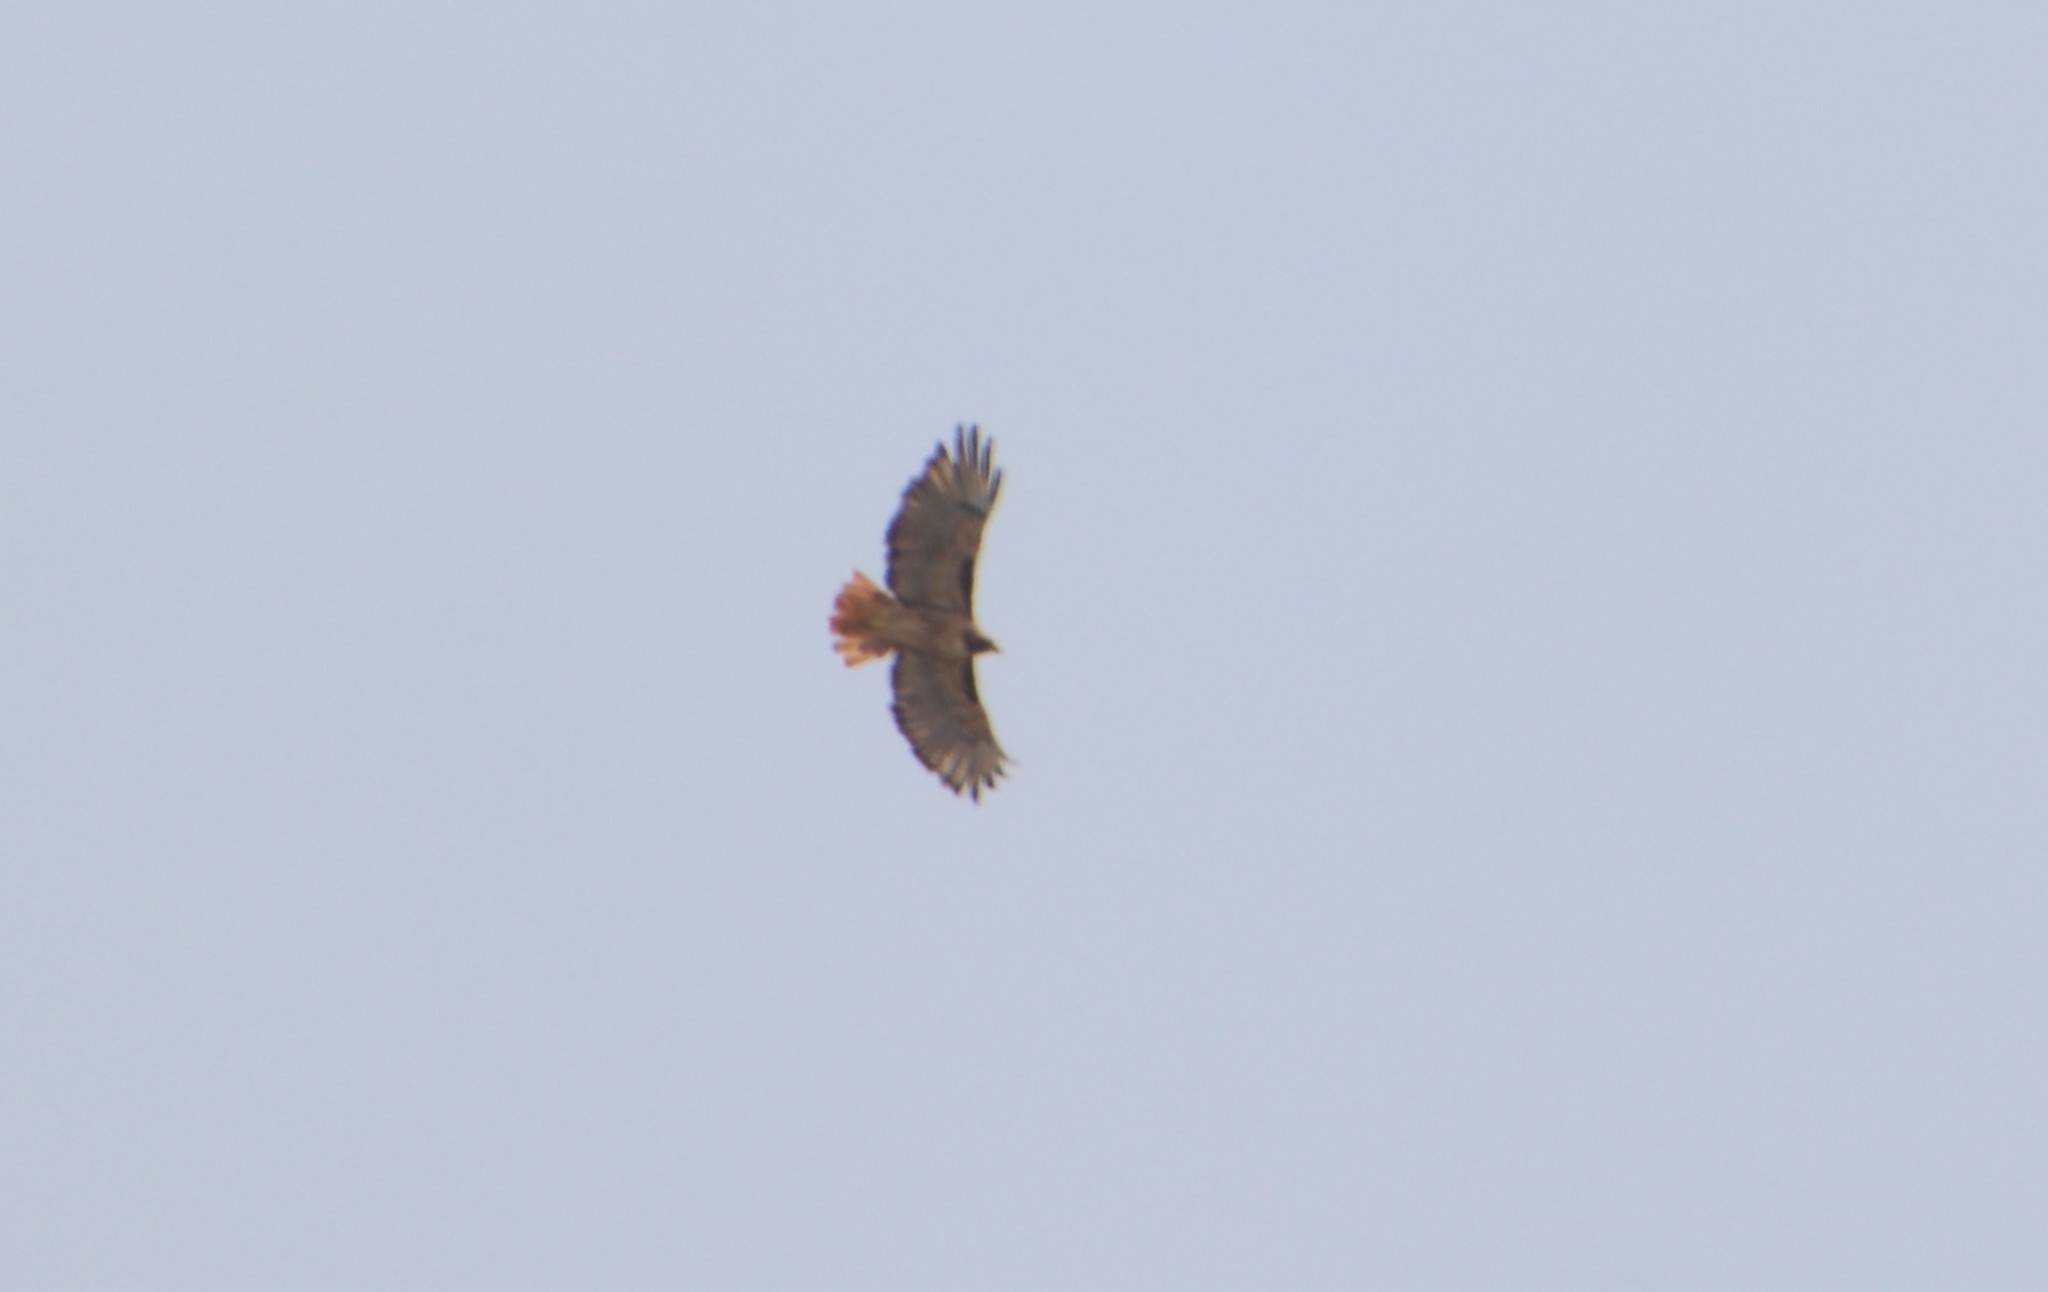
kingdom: Animalia
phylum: Chordata
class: Aves
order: Accipitriformes
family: Accipitridae
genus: Buteo
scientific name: Buteo jamaicensis
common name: Red-tailed hawk
